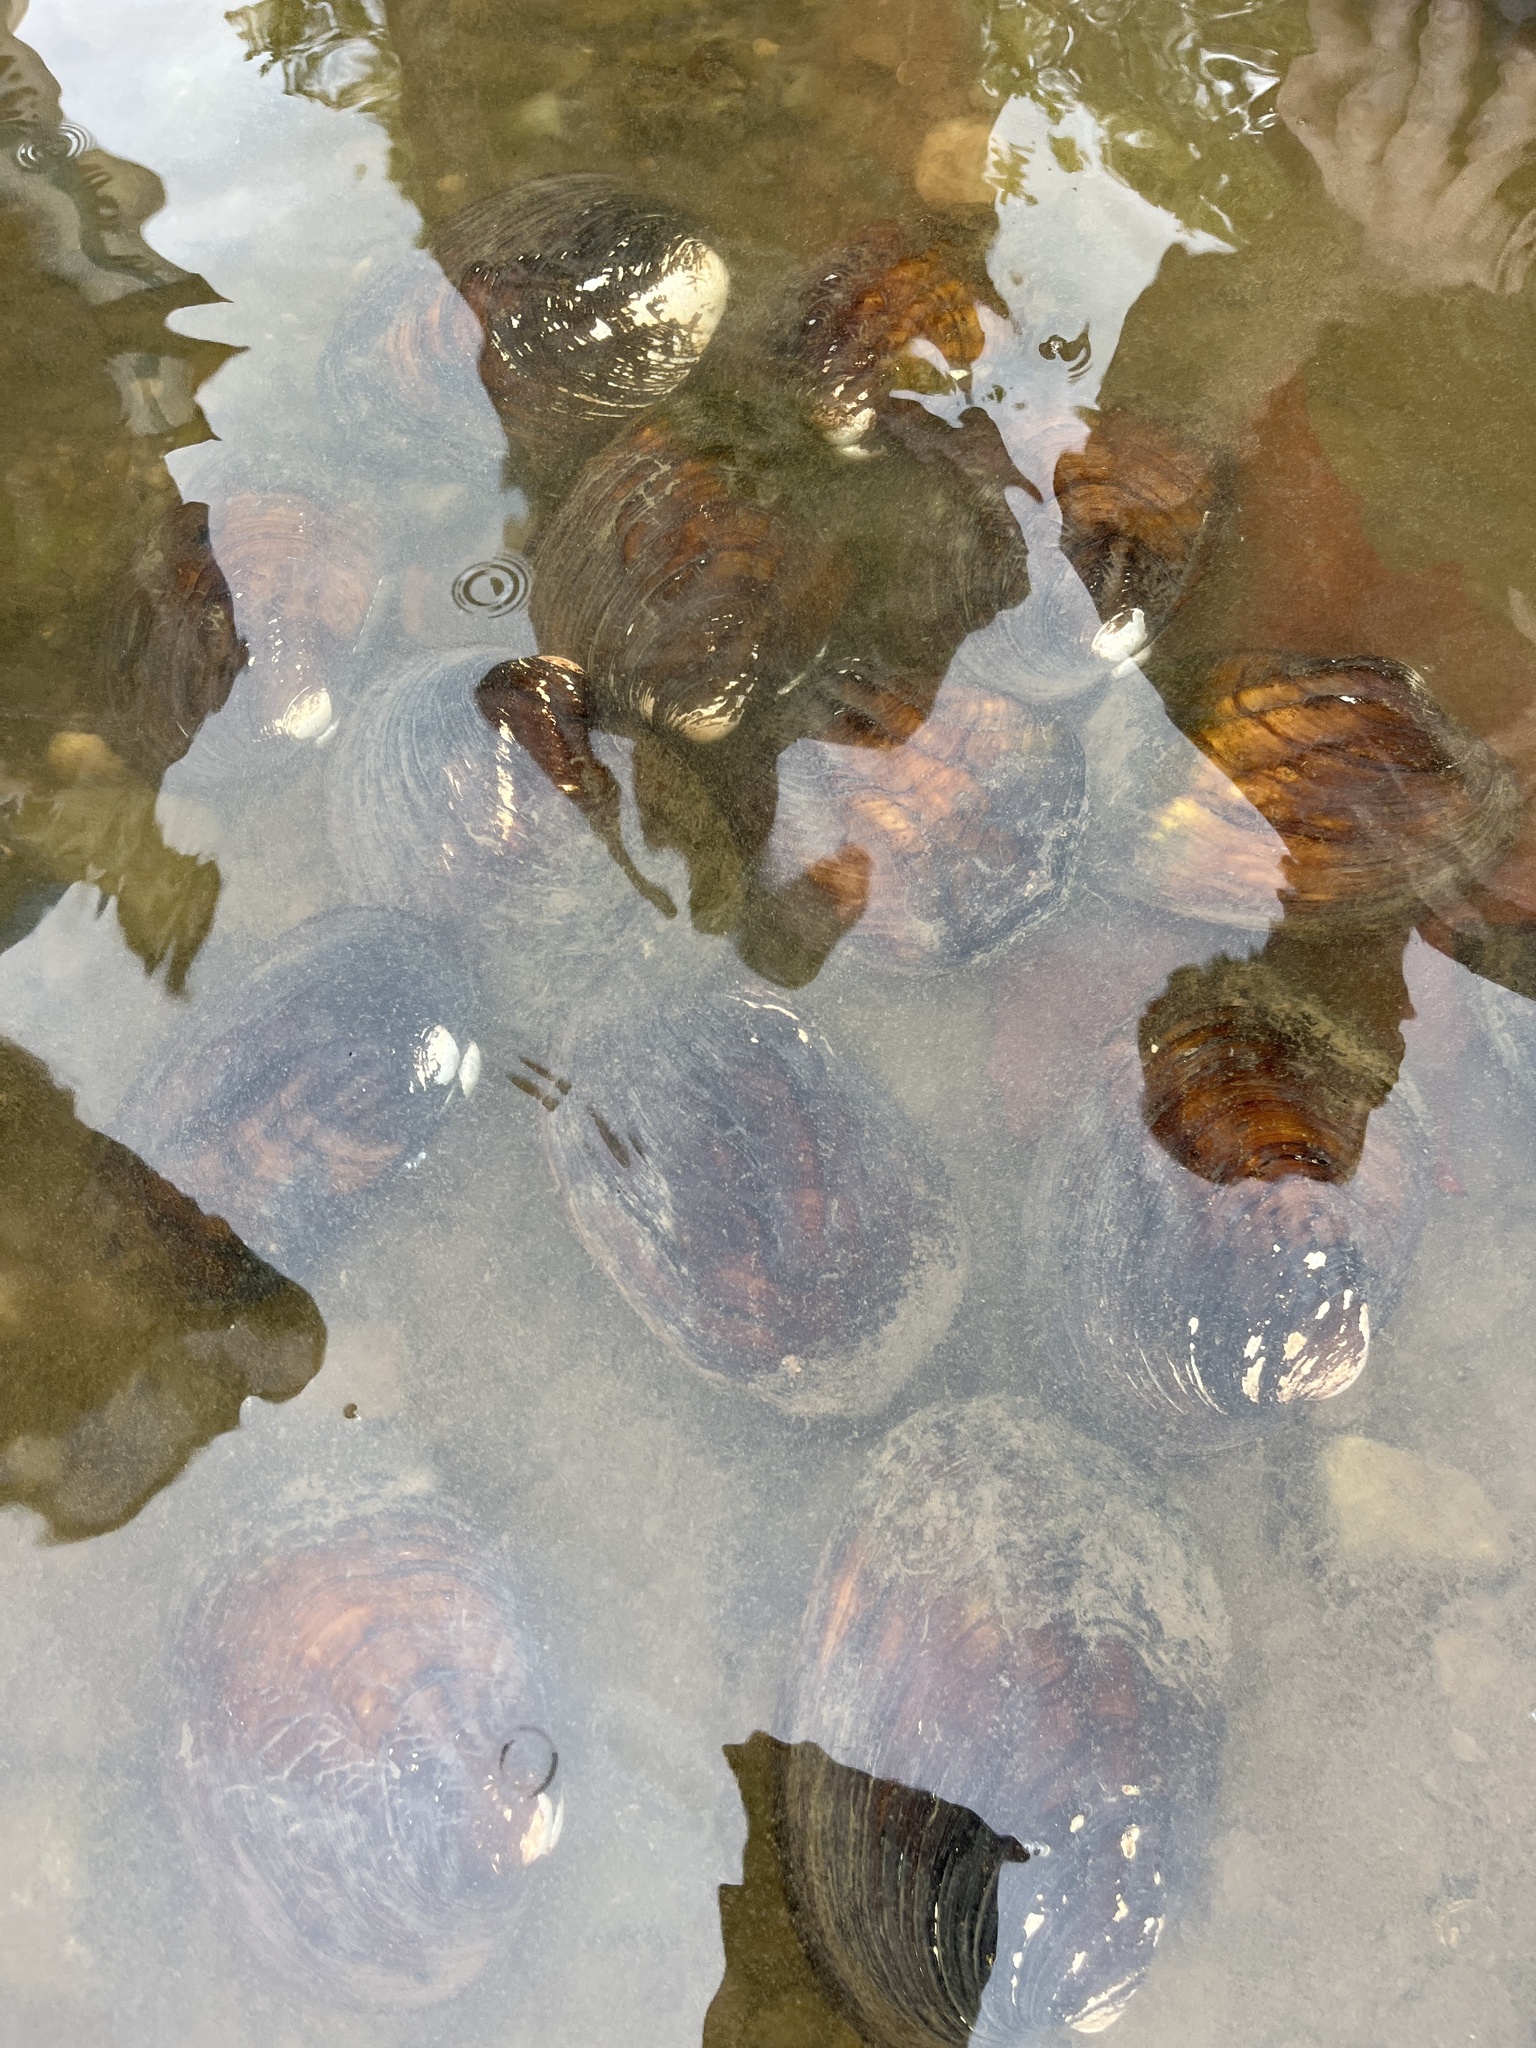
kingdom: Animalia
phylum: Mollusca
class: Bivalvia
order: Unionida
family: Unionidae
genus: Amblema
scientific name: Amblema plicata
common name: Threeridge
